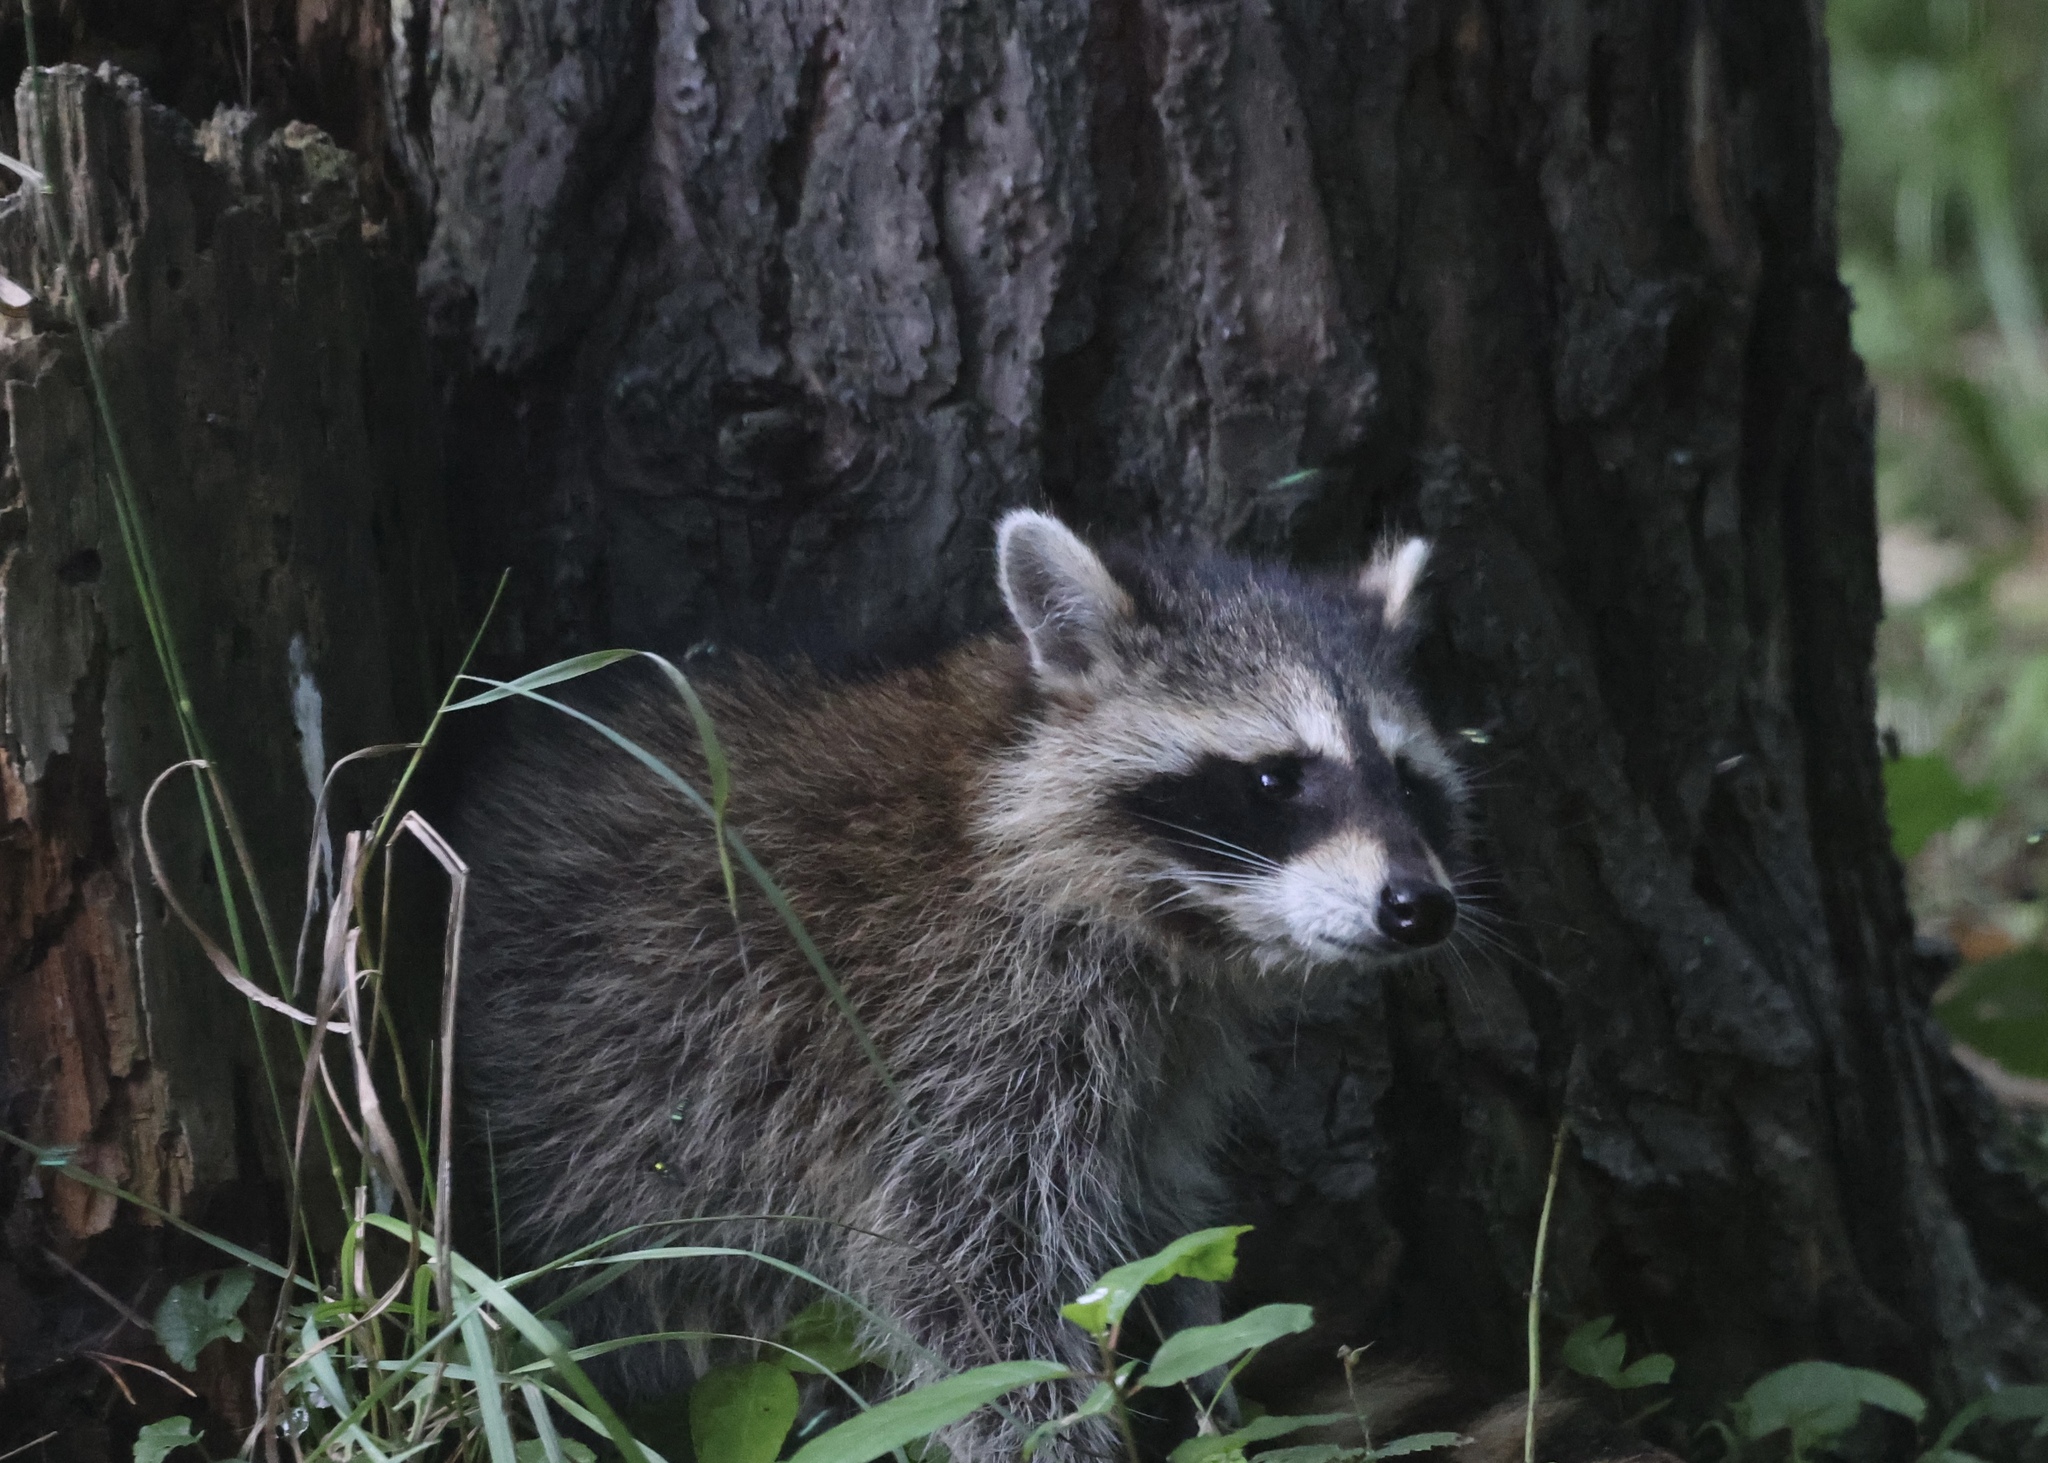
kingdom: Animalia
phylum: Chordata
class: Mammalia
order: Carnivora
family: Procyonidae
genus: Procyon
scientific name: Procyon lotor
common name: Raccoon
